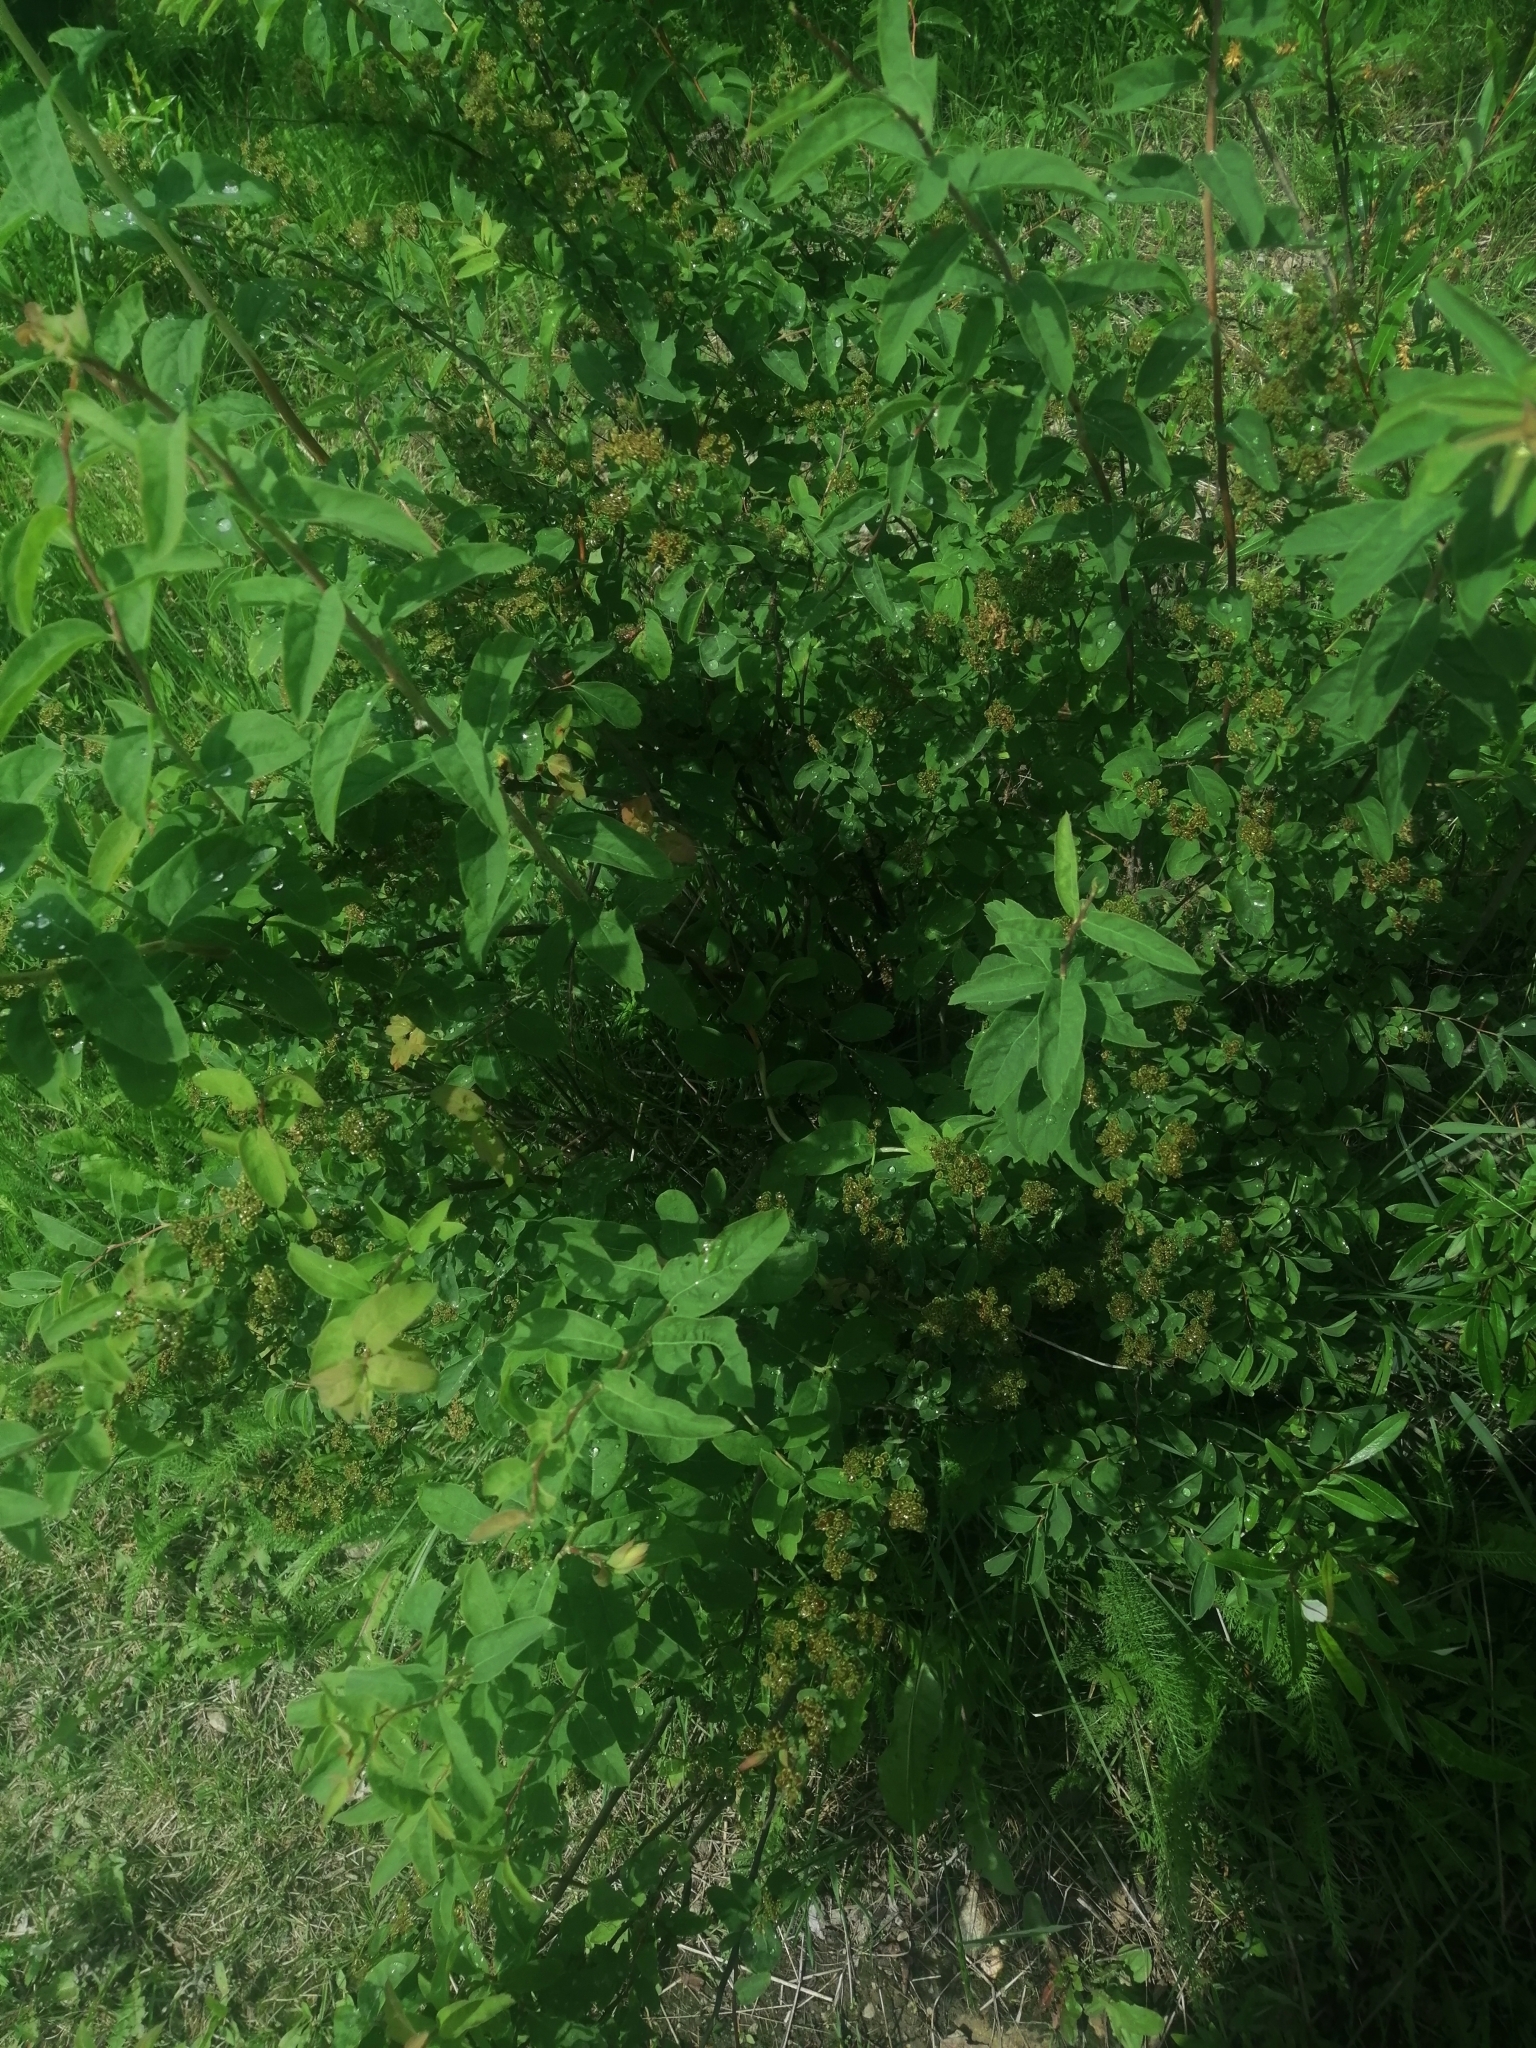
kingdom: Plantae
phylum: Tracheophyta
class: Magnoliopsida
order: Rosales
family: Rosaceae
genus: Spiraea
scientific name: Spiraea flexuosa
